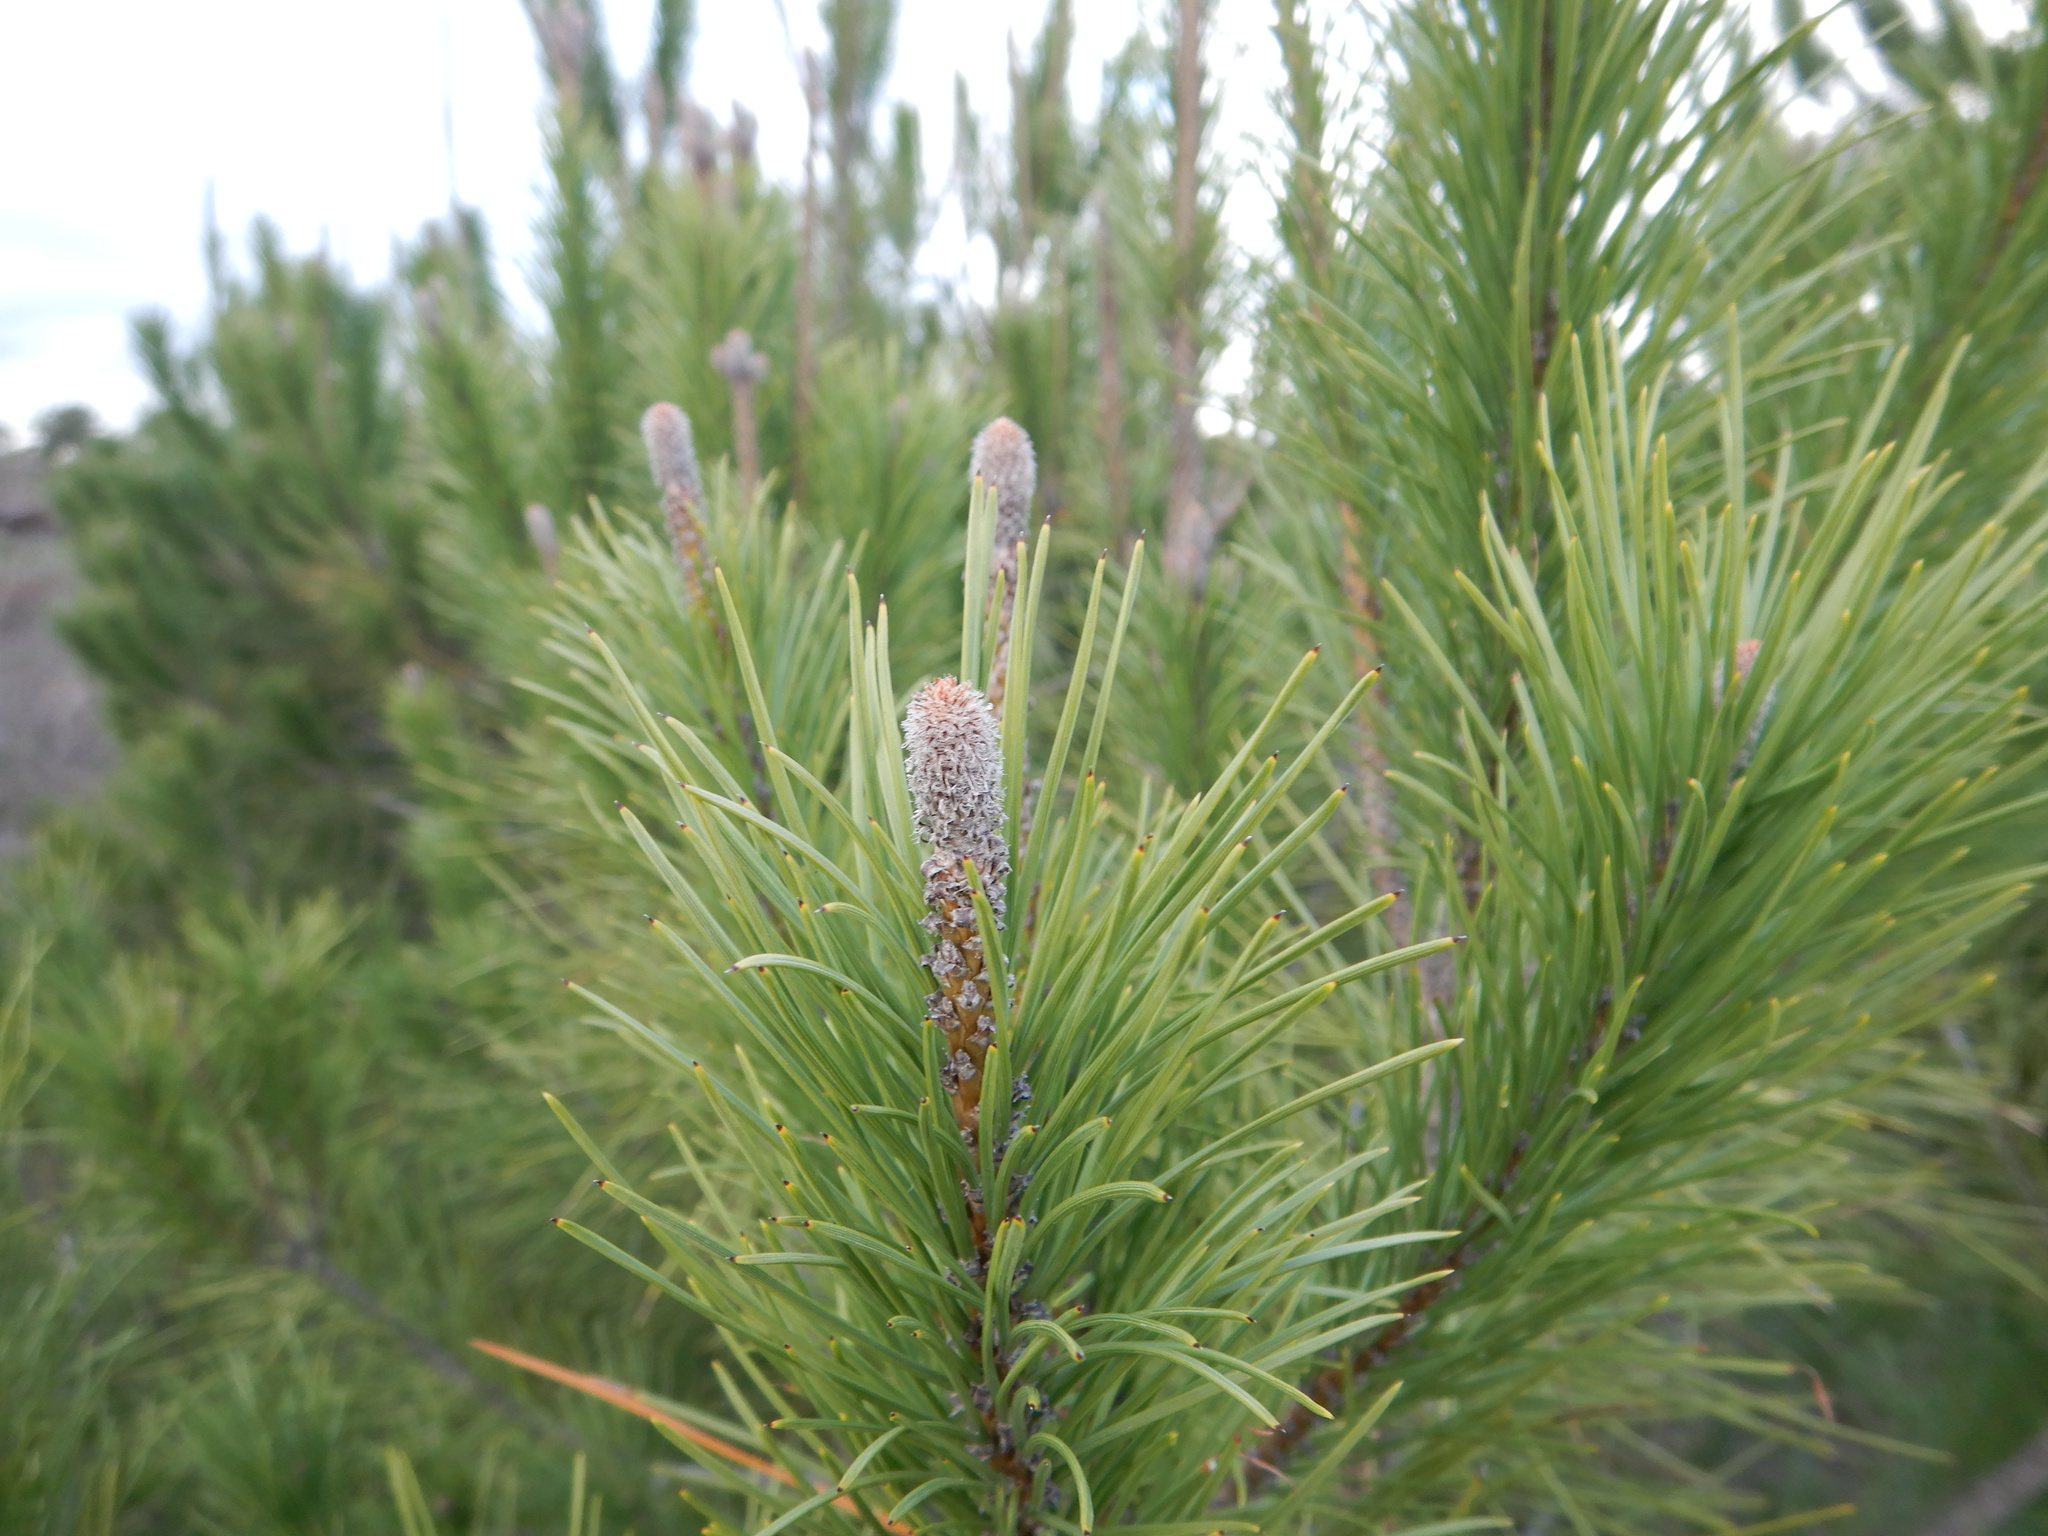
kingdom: Plantae
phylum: Tracheophyta
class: Pinopsida
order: Pinales
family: Pinaceae
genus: Pinus
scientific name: Pinus pinea
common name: Italian stone pine
